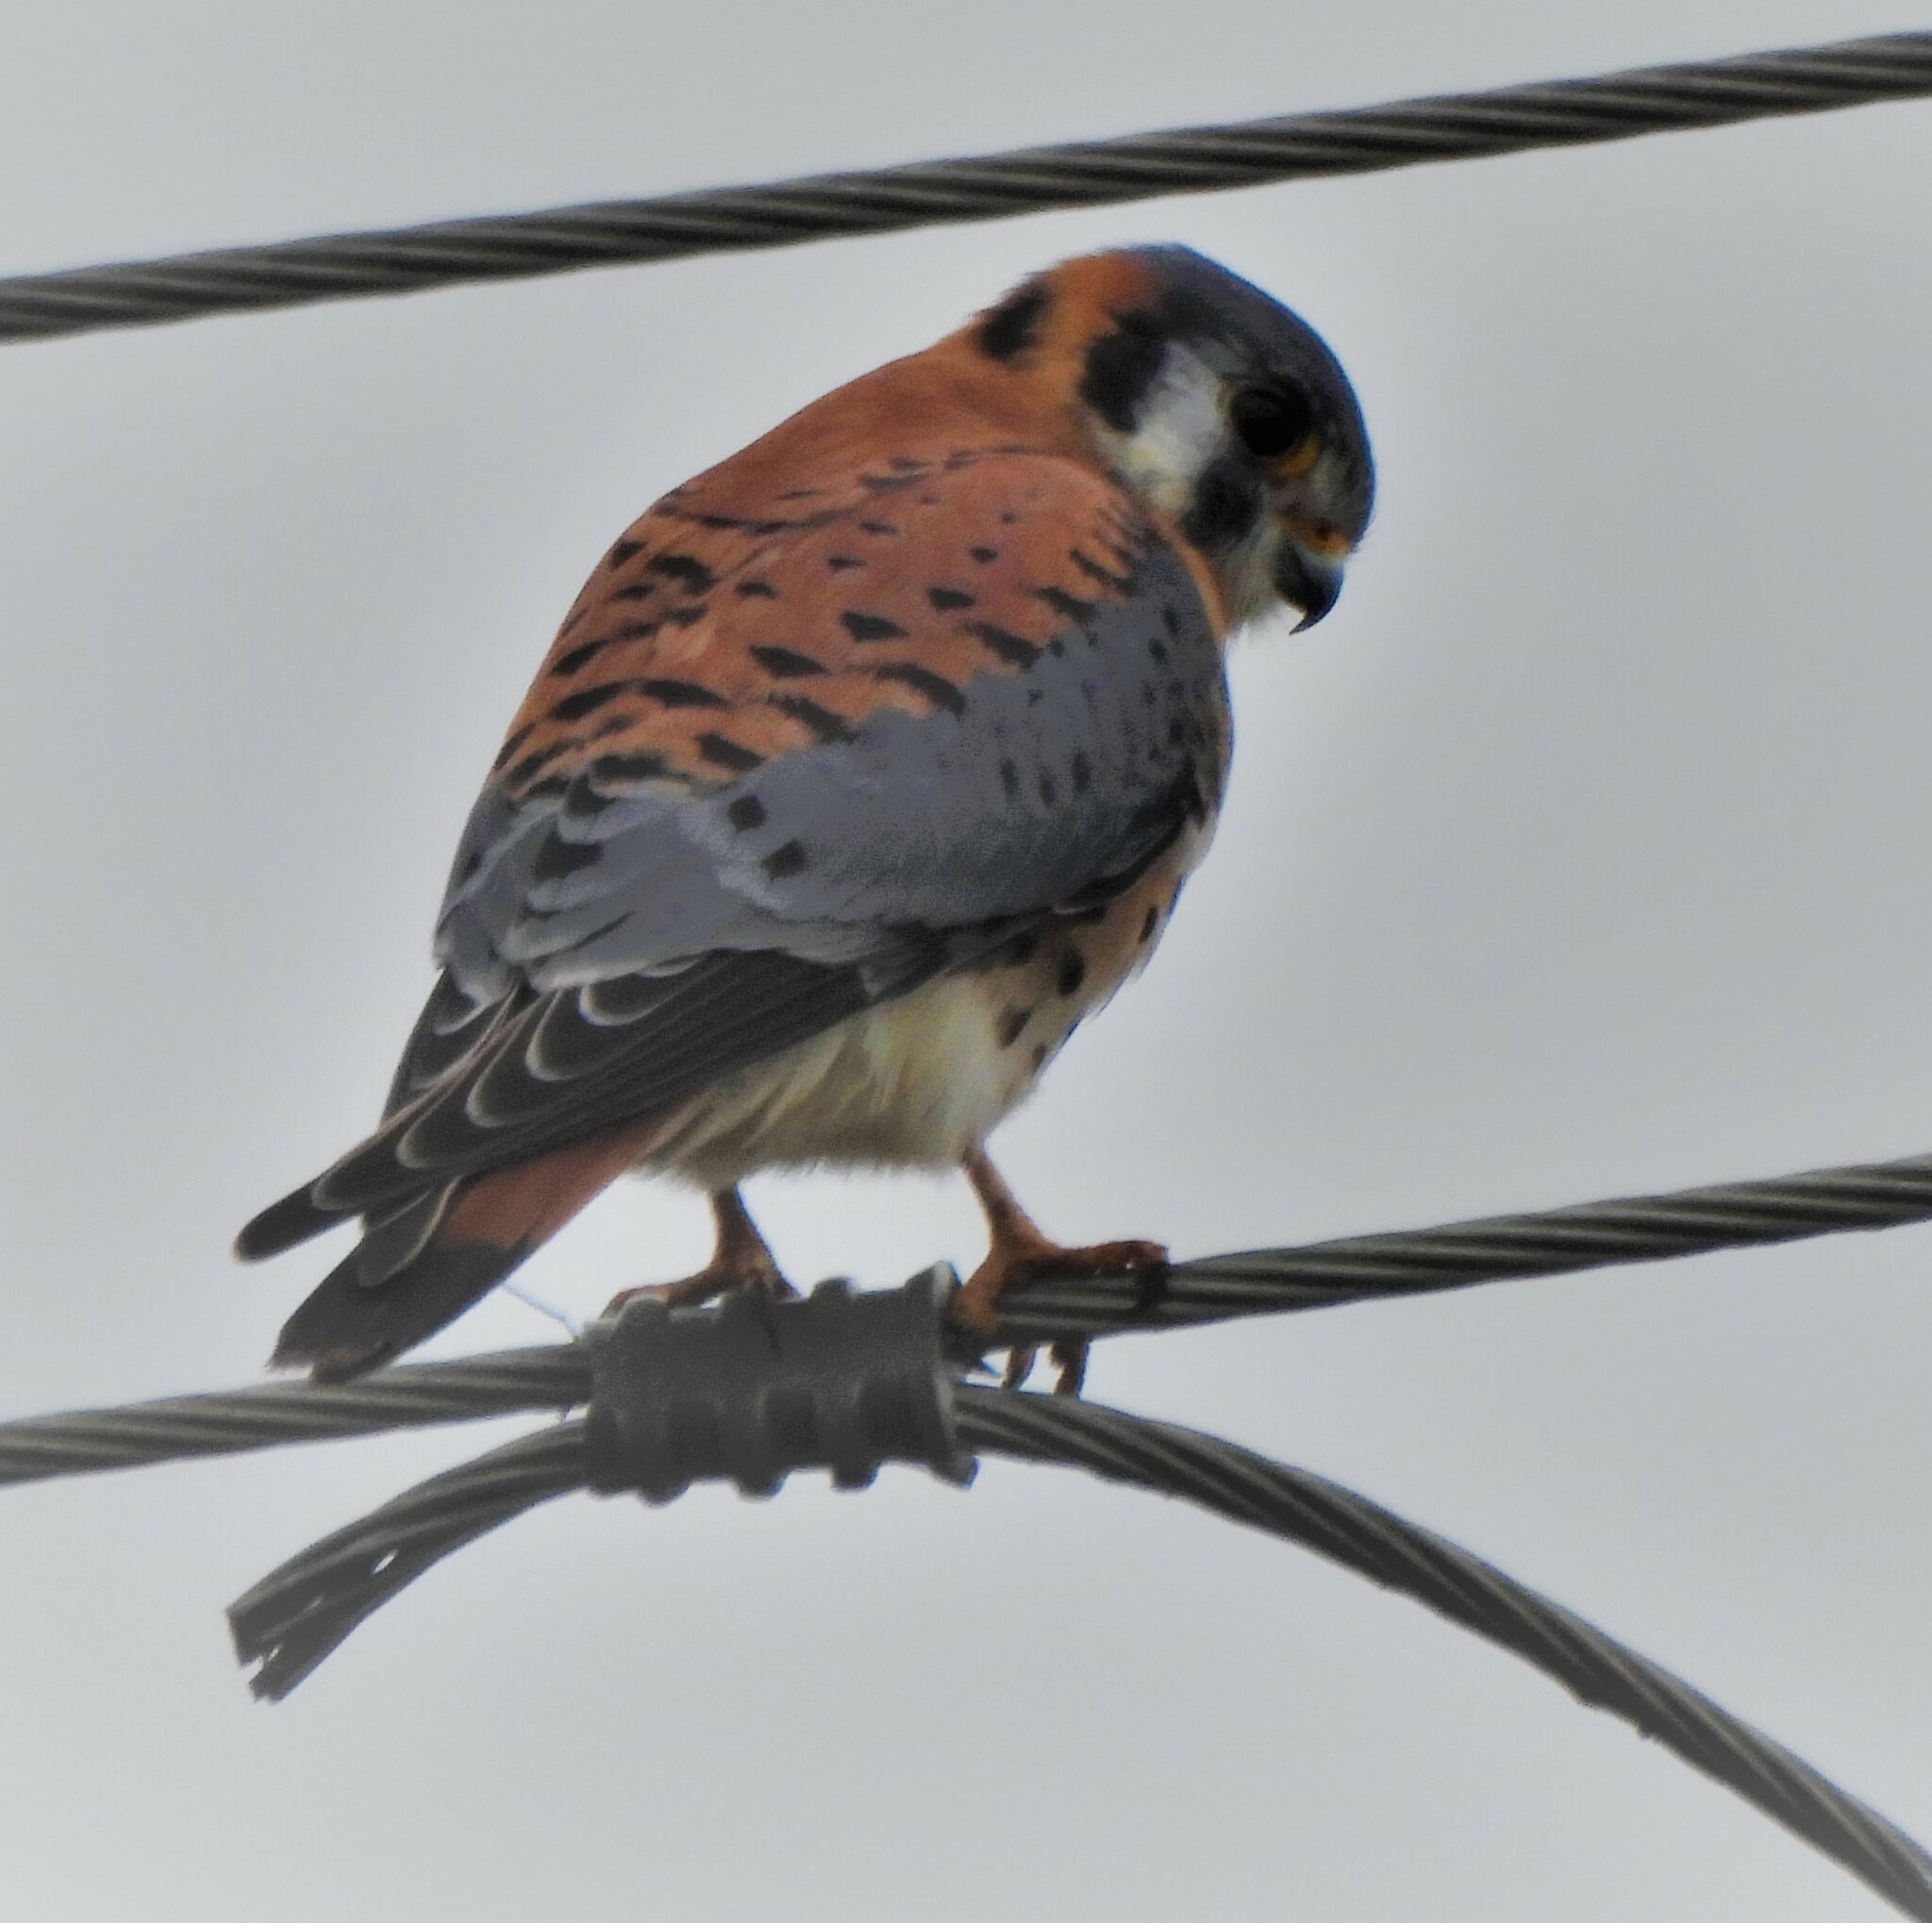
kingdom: Animalia
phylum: Chordata
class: Aves
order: Falconiformes
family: Falconidae
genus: Falco
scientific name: Falco sparverius
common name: American kestrel
